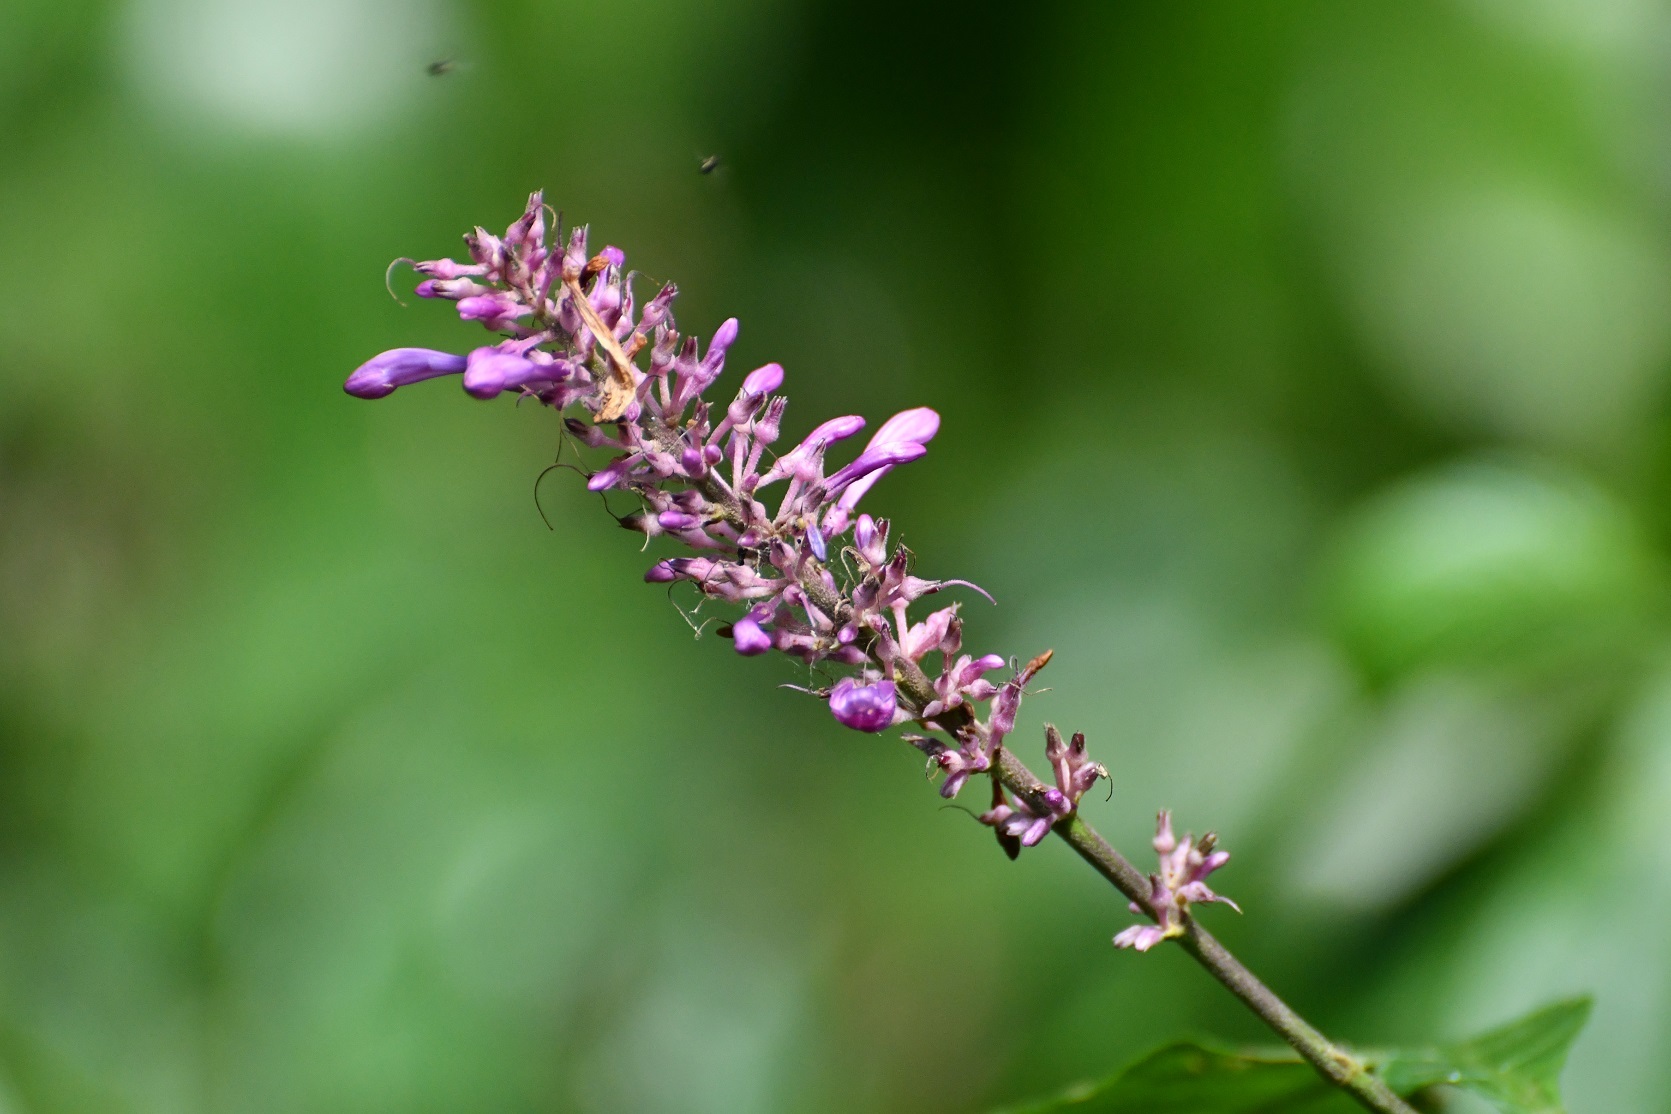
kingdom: Plantae
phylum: Tracheophyta
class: Magnoliopsida
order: Lamiales
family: Acanthaceae
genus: Odontonema
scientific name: Odontonema callistachyum
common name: Firespike
